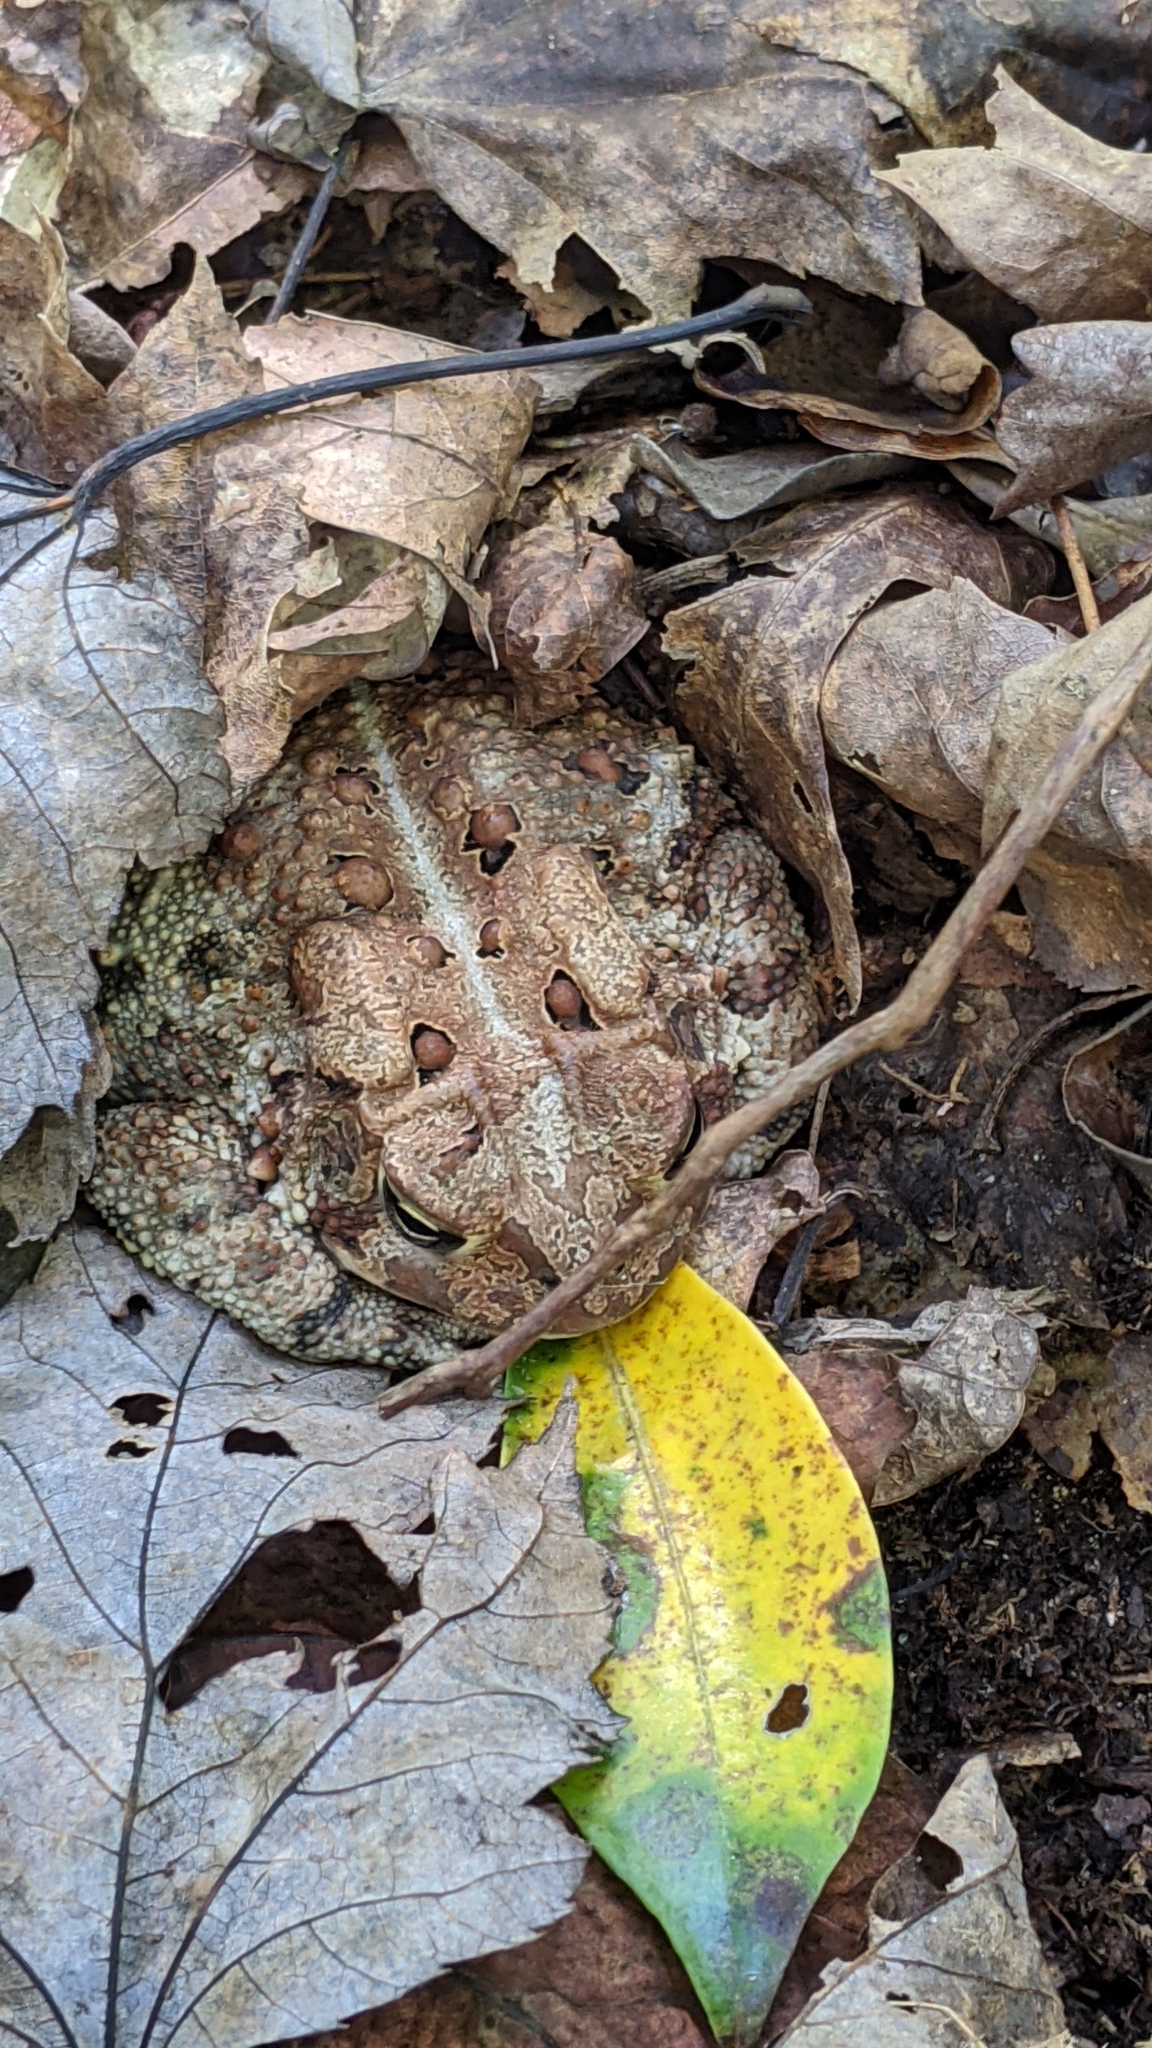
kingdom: Animalia
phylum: Chordata
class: Amphibia
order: Anura
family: Bufonidae
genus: Anaxyrus
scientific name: Anaxyrus americanus
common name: American toad
